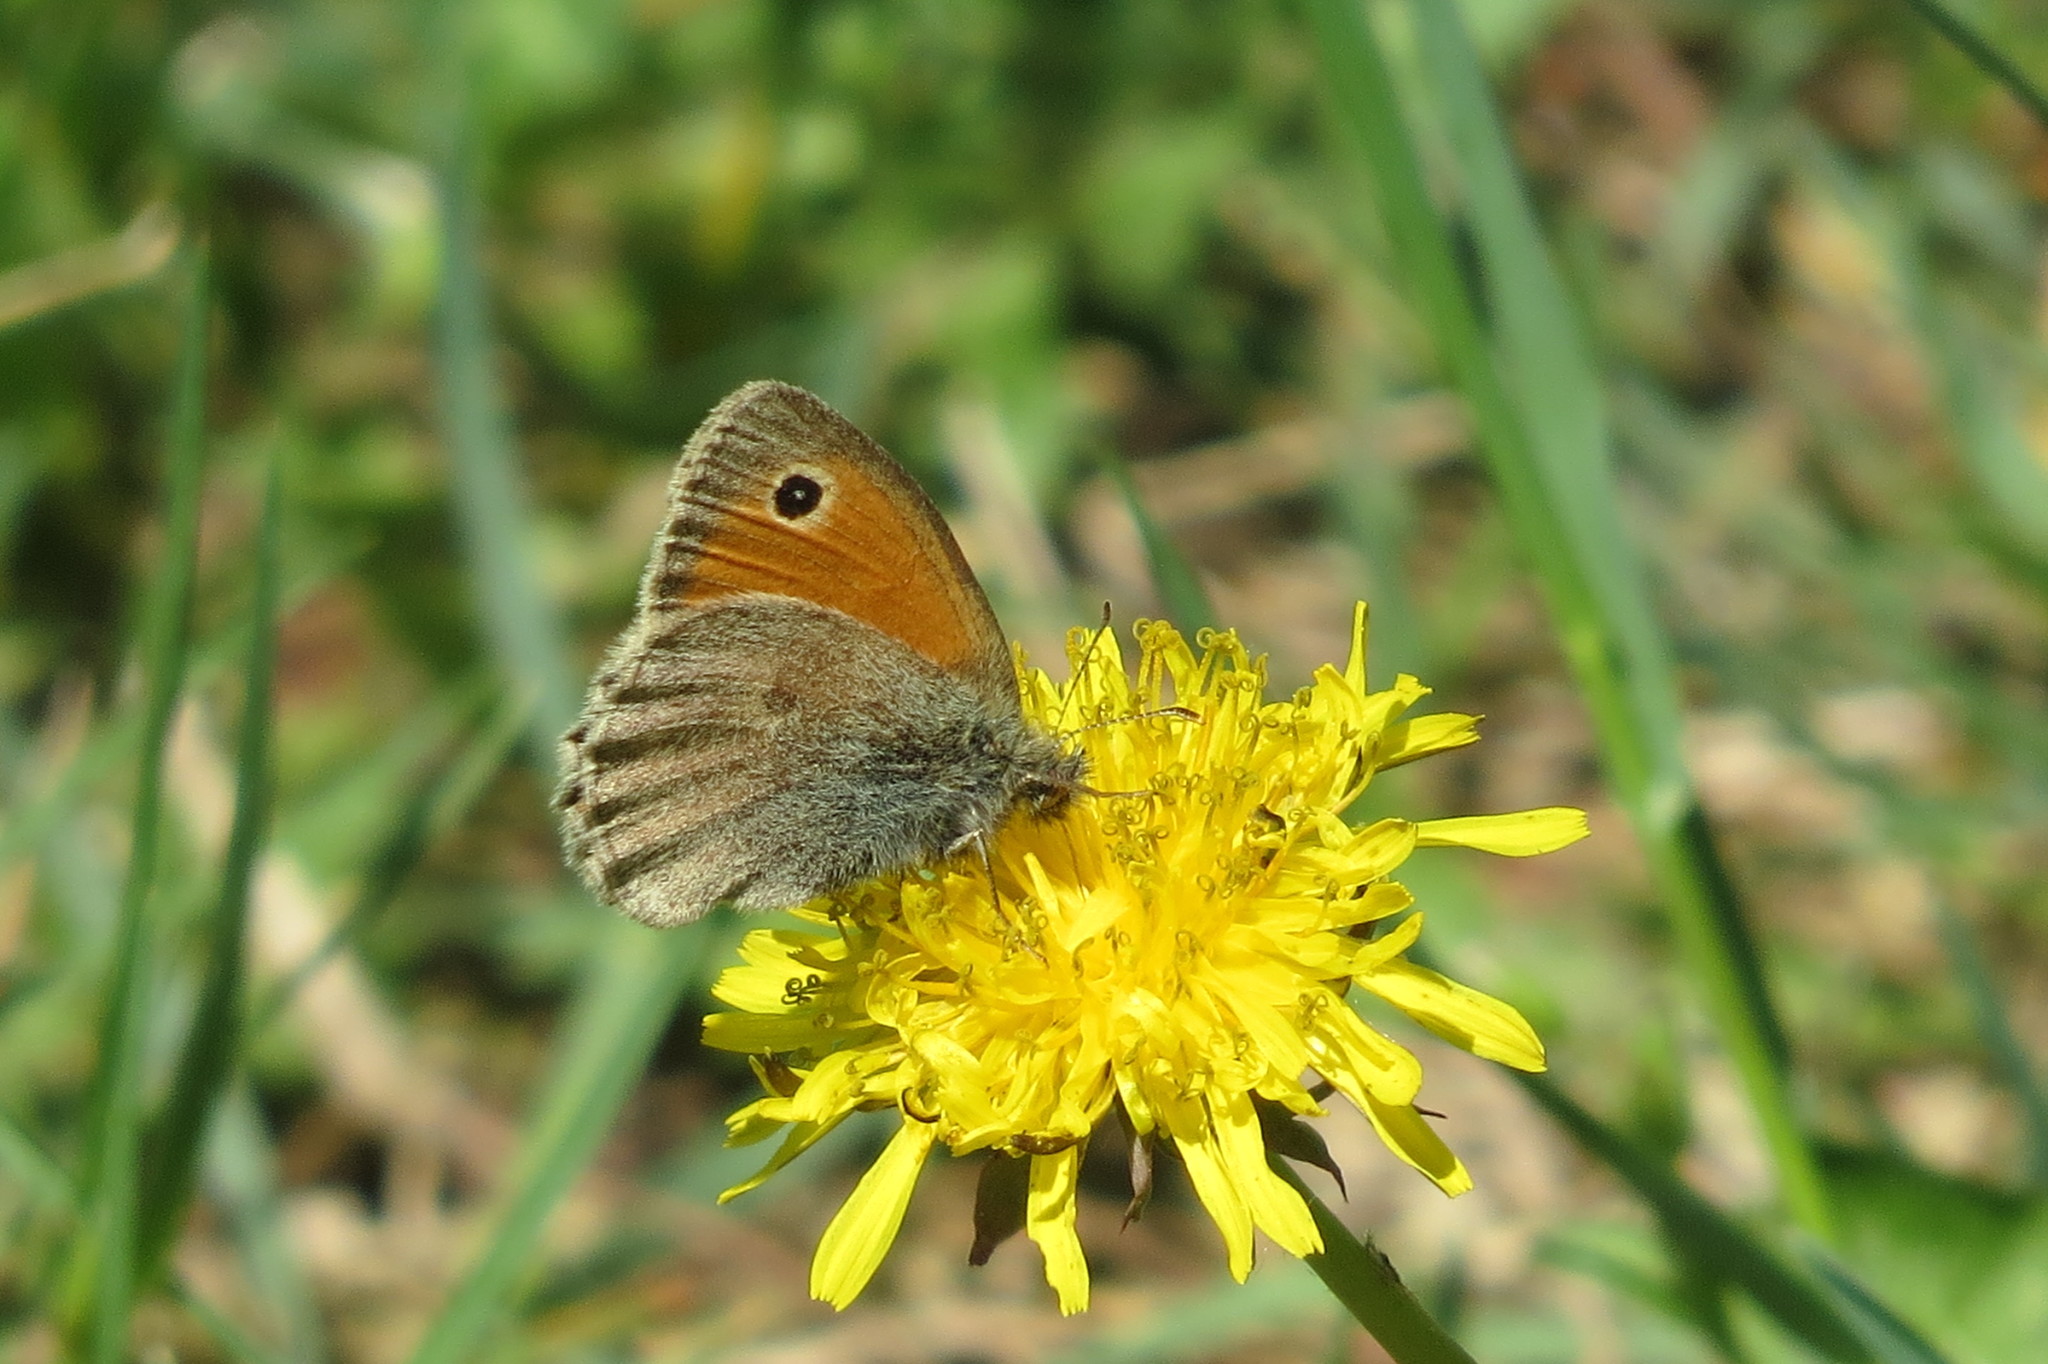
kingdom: Animalia
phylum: Arthropoda
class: Insecta
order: Lepidoptera
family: Nymphalidae
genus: Coenonympha
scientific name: Coenonympha pamphilus
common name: Small heath
